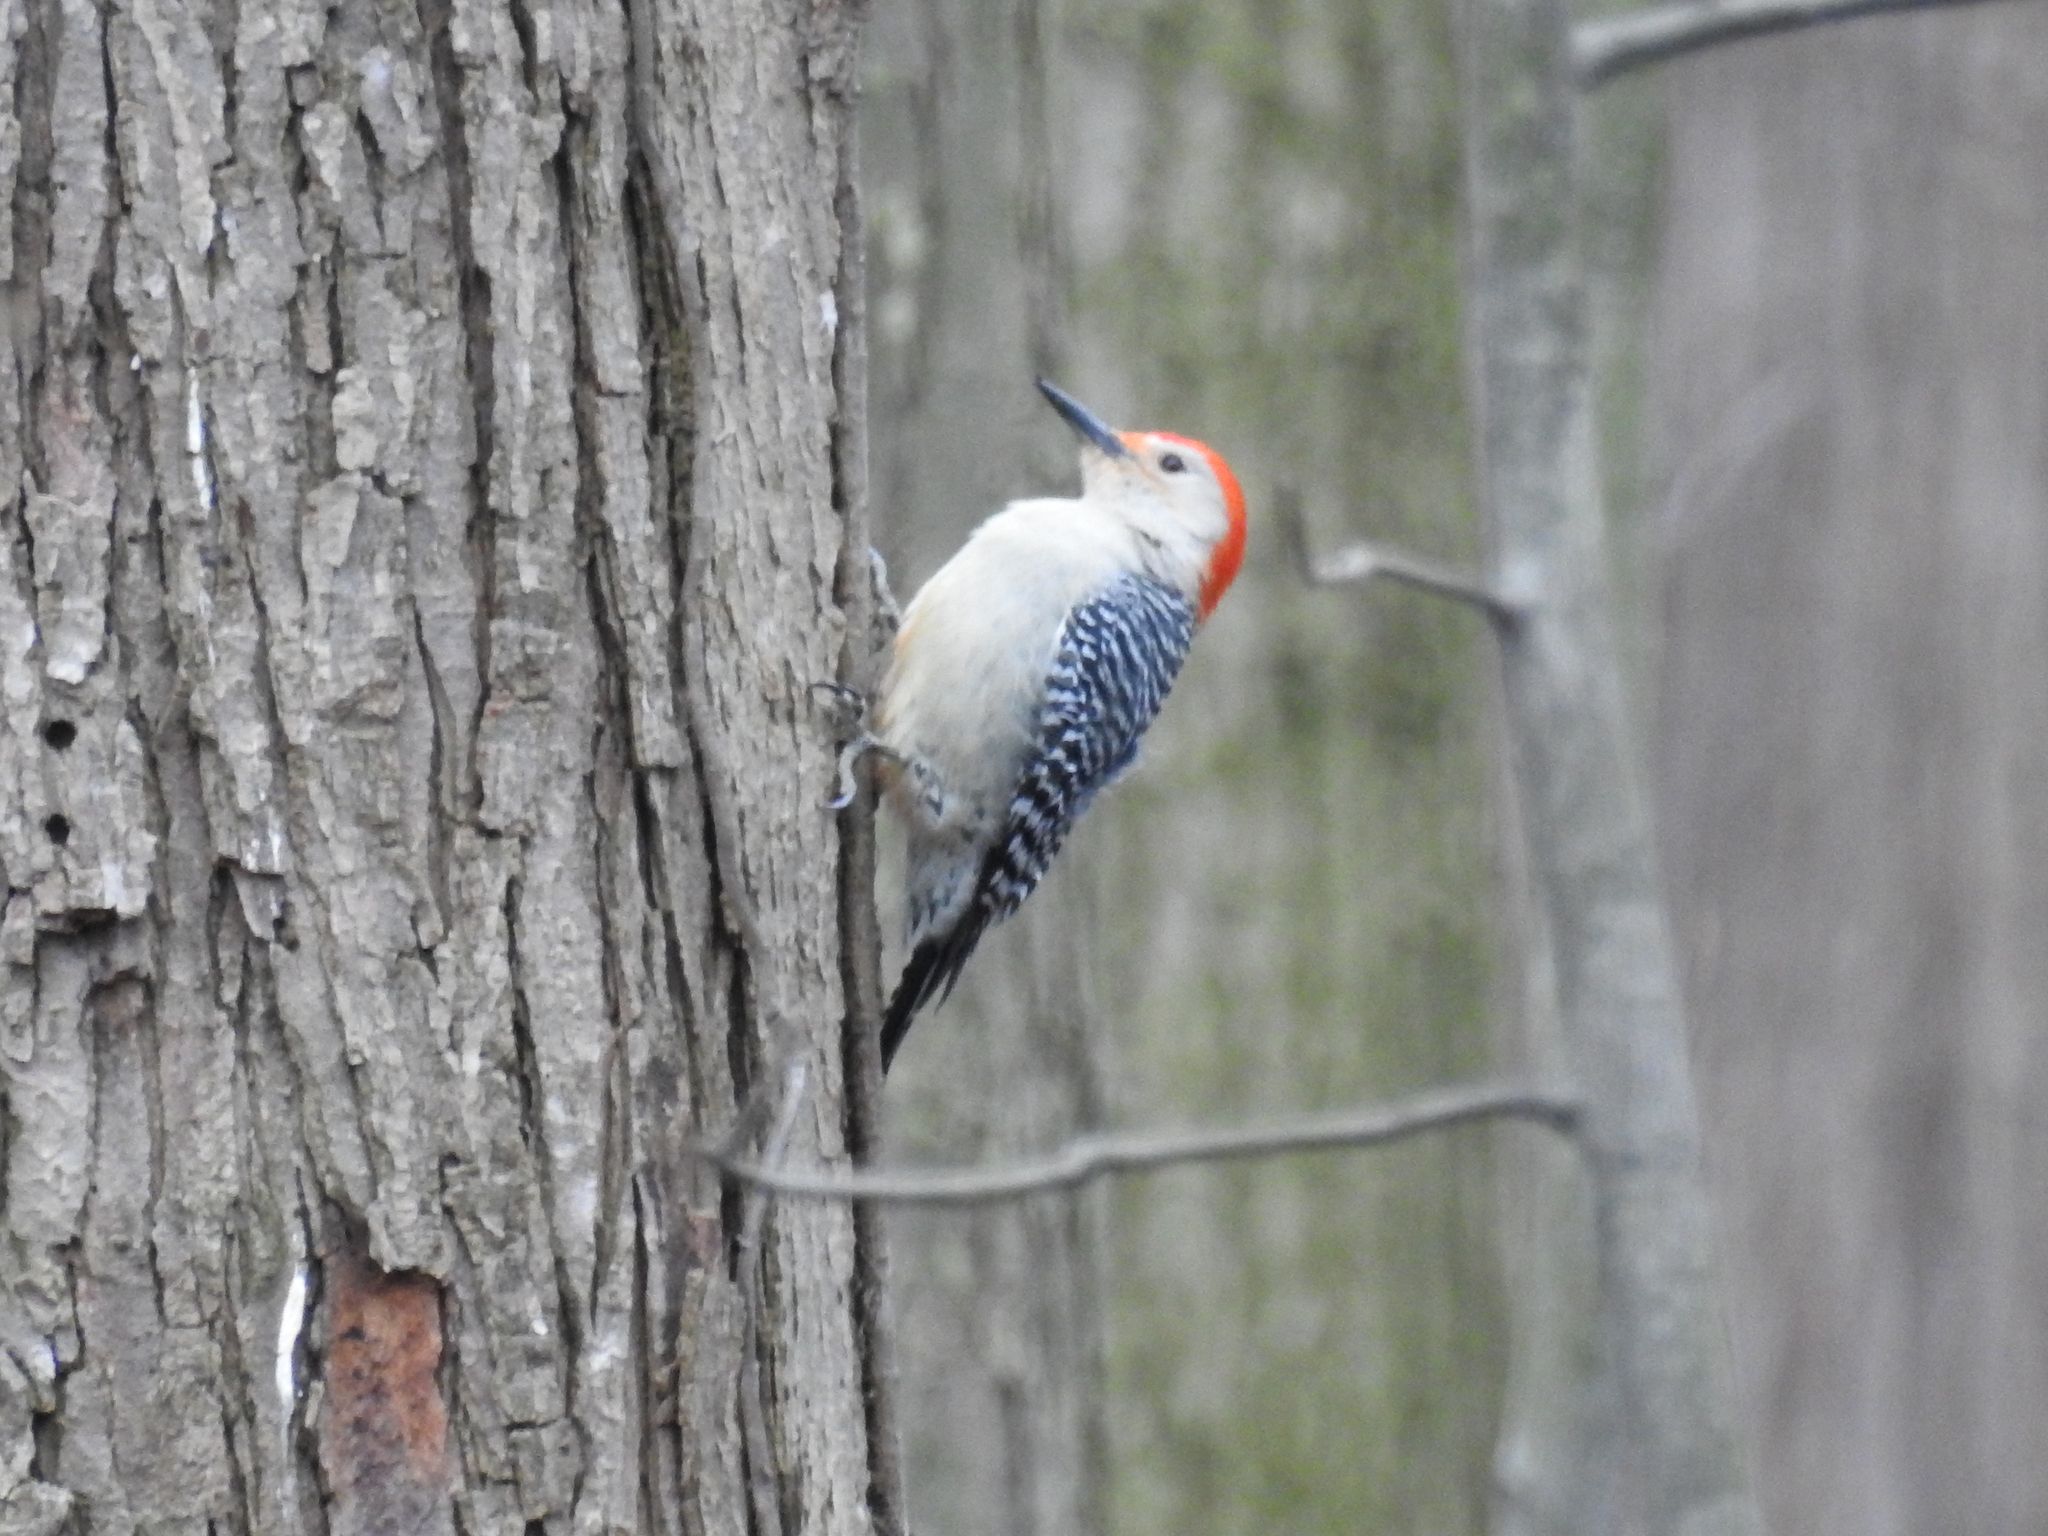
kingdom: Animalia
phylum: Chordata
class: Aves
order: Piciformes
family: Picidae
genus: Melanerpes
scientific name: Melanerpes carolinus
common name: Red-bellied woodpecker
